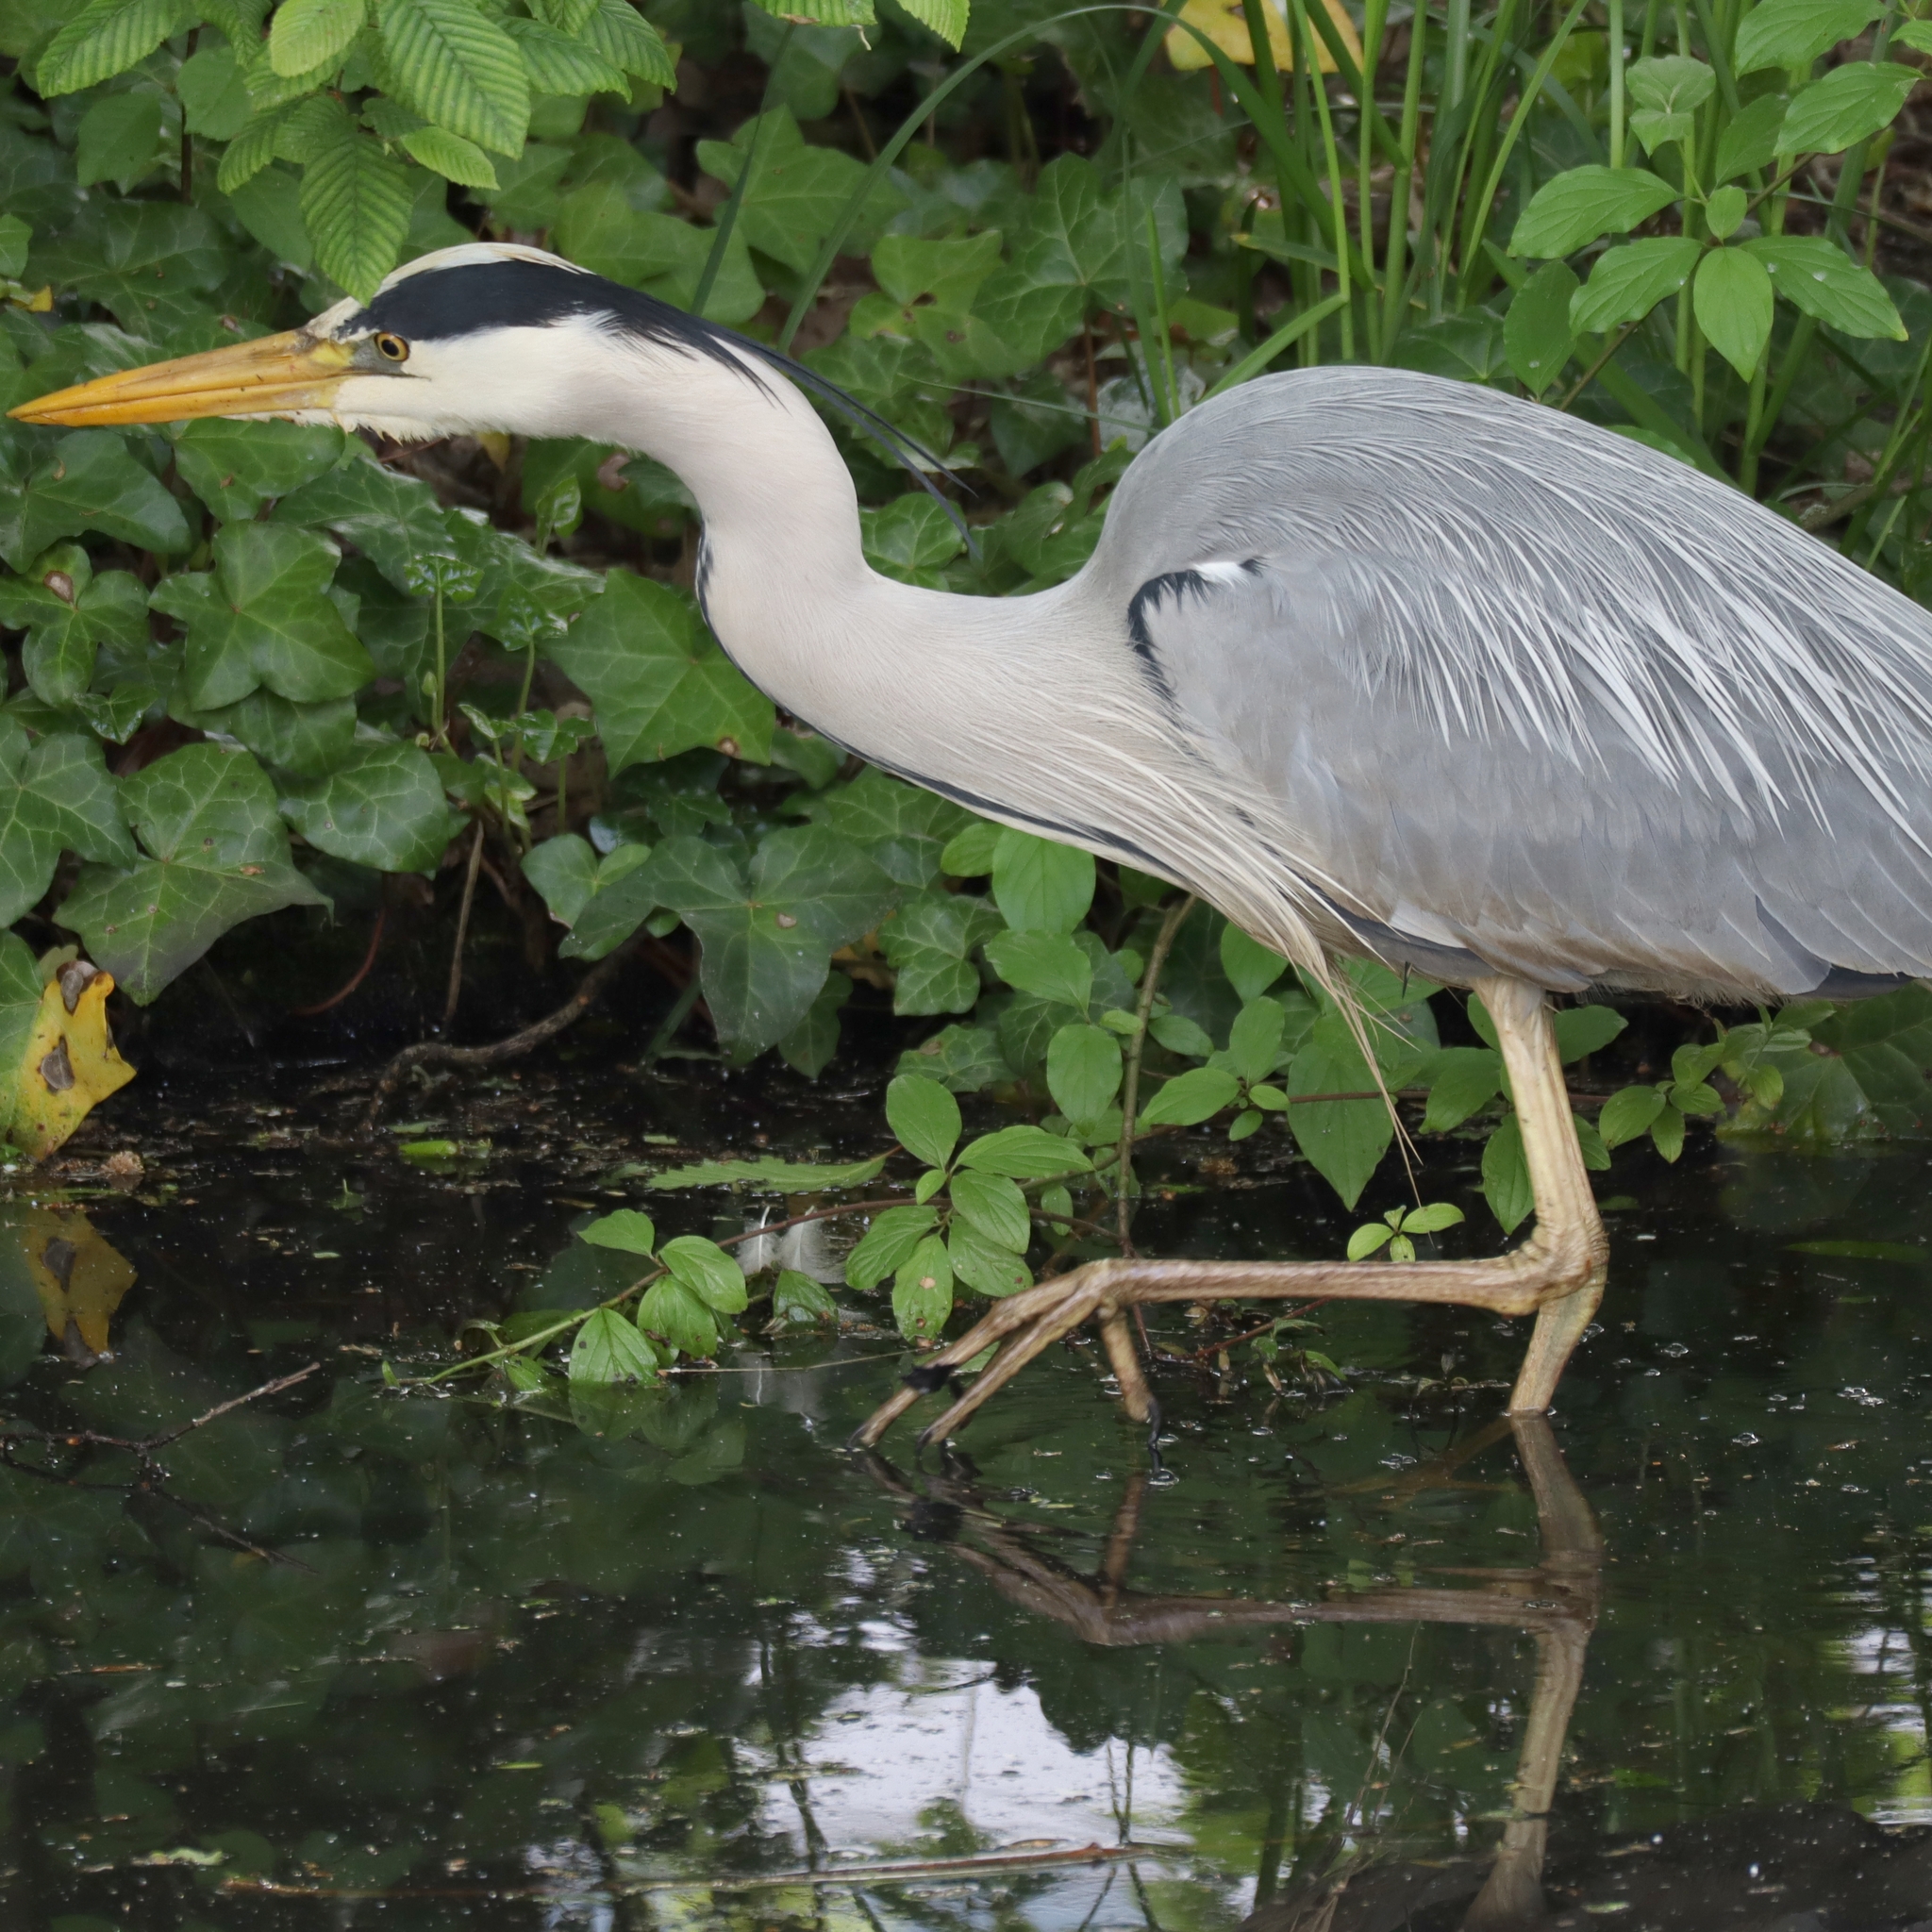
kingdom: Animalia
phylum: Chordata
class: Aves
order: Pelecaniformes
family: Ardeidae
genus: Ardea
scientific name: Ardea cinerea
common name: Grey heron
